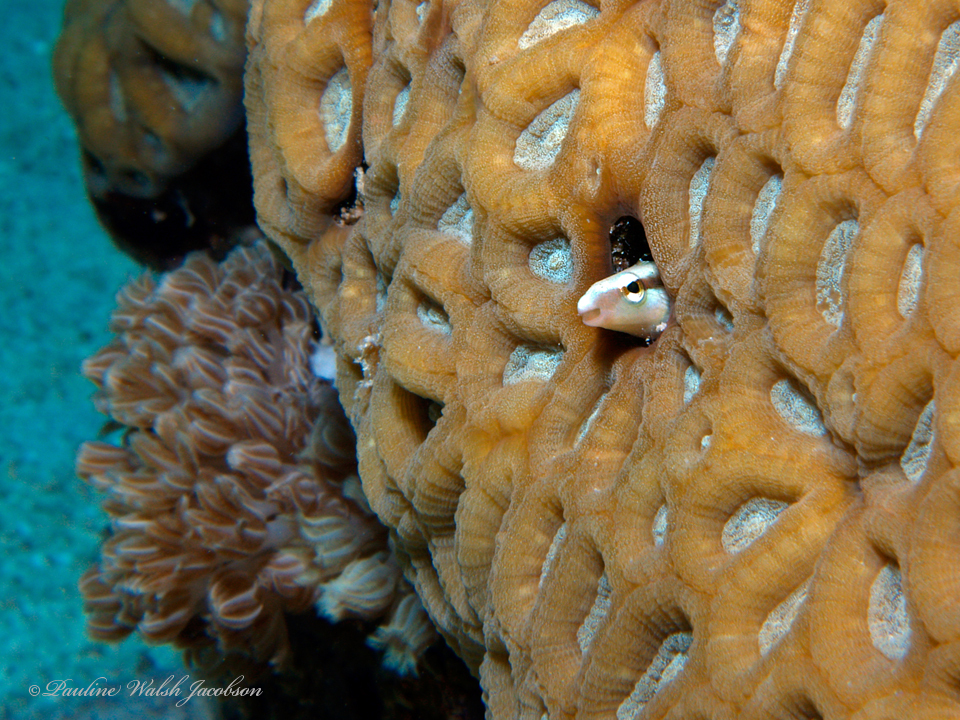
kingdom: Animalia
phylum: Chordata
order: Perciformes
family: Blenniidae
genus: Aspidontus
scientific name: Aspidontus dussumieri
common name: Lance blenny
